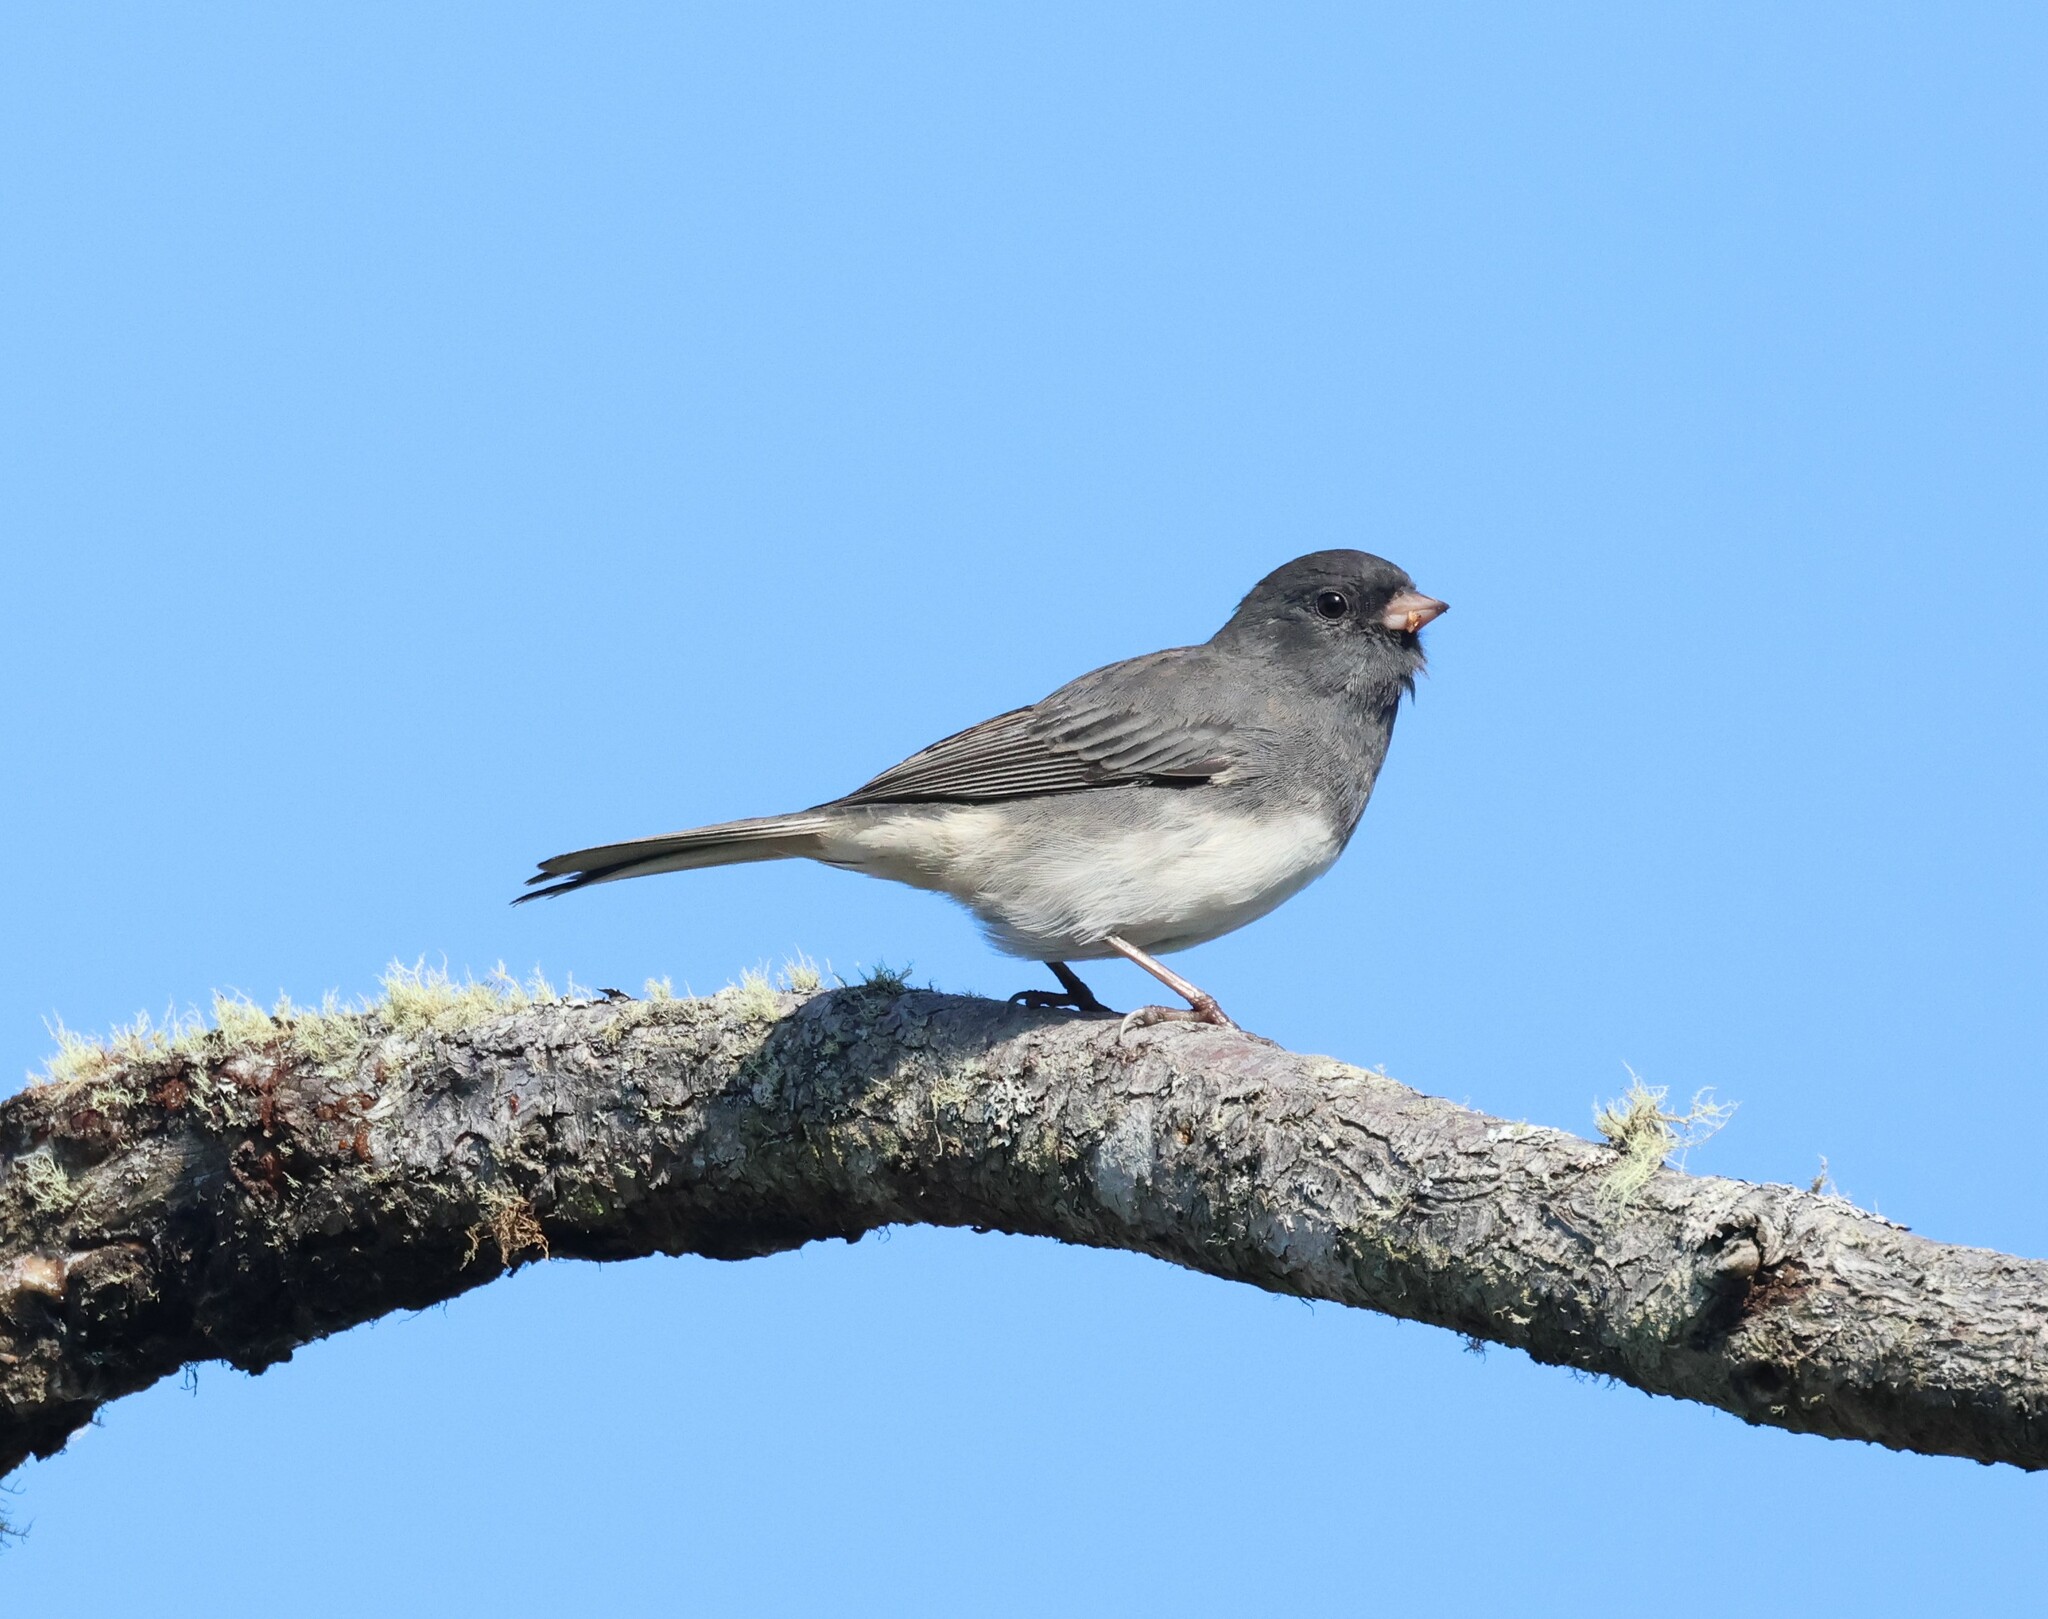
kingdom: Animalia
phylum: Chordata
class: Aves
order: Passeriformes
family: Passerellidae
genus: Junco
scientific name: Junco hyemalis
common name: Dark-eyed junco
